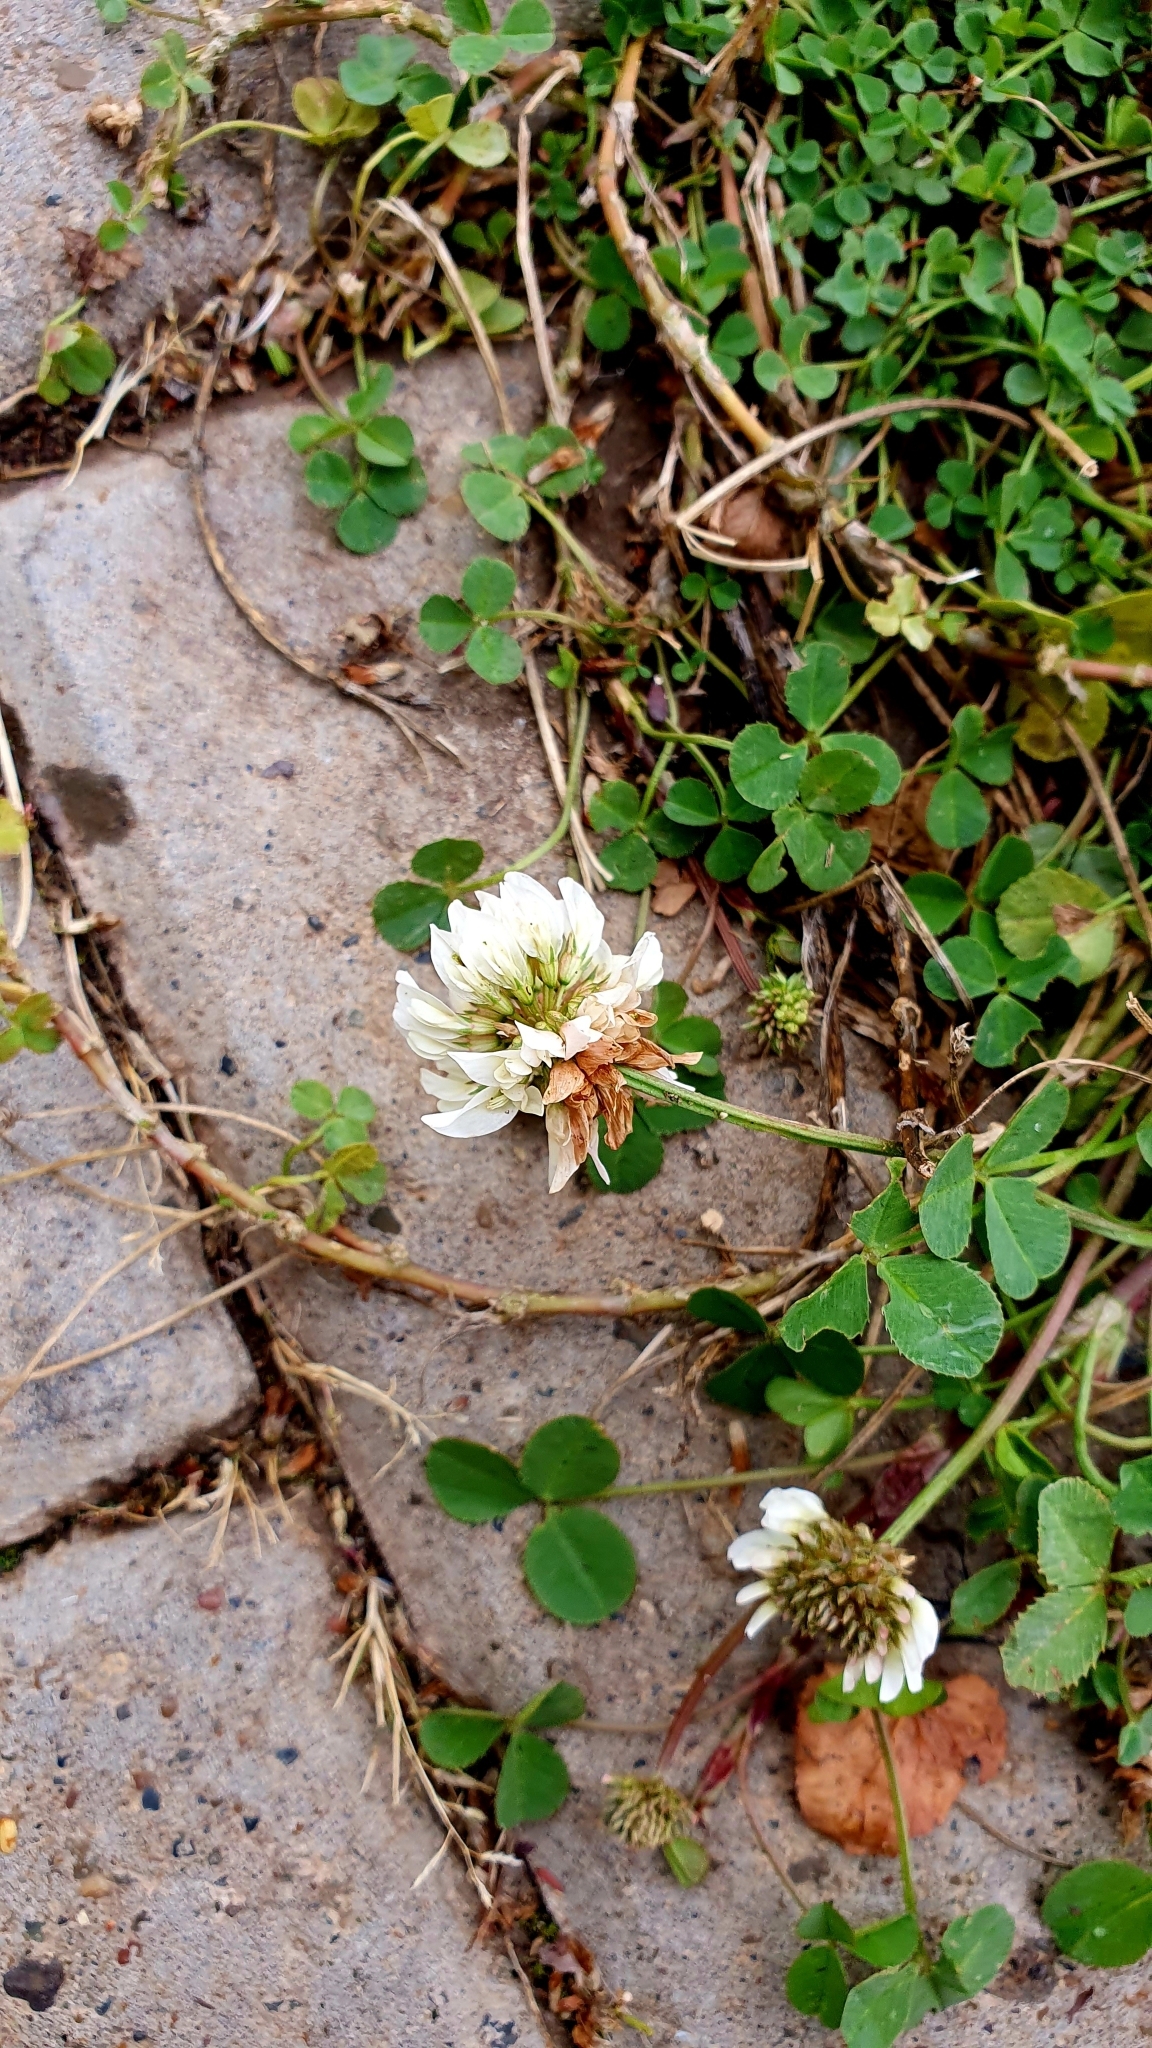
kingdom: Plantae
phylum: Tracheophyta
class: Magnoliopsida
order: Fabales
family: Fabaceae
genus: Trifolium
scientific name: Trifolium repens
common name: White clover
